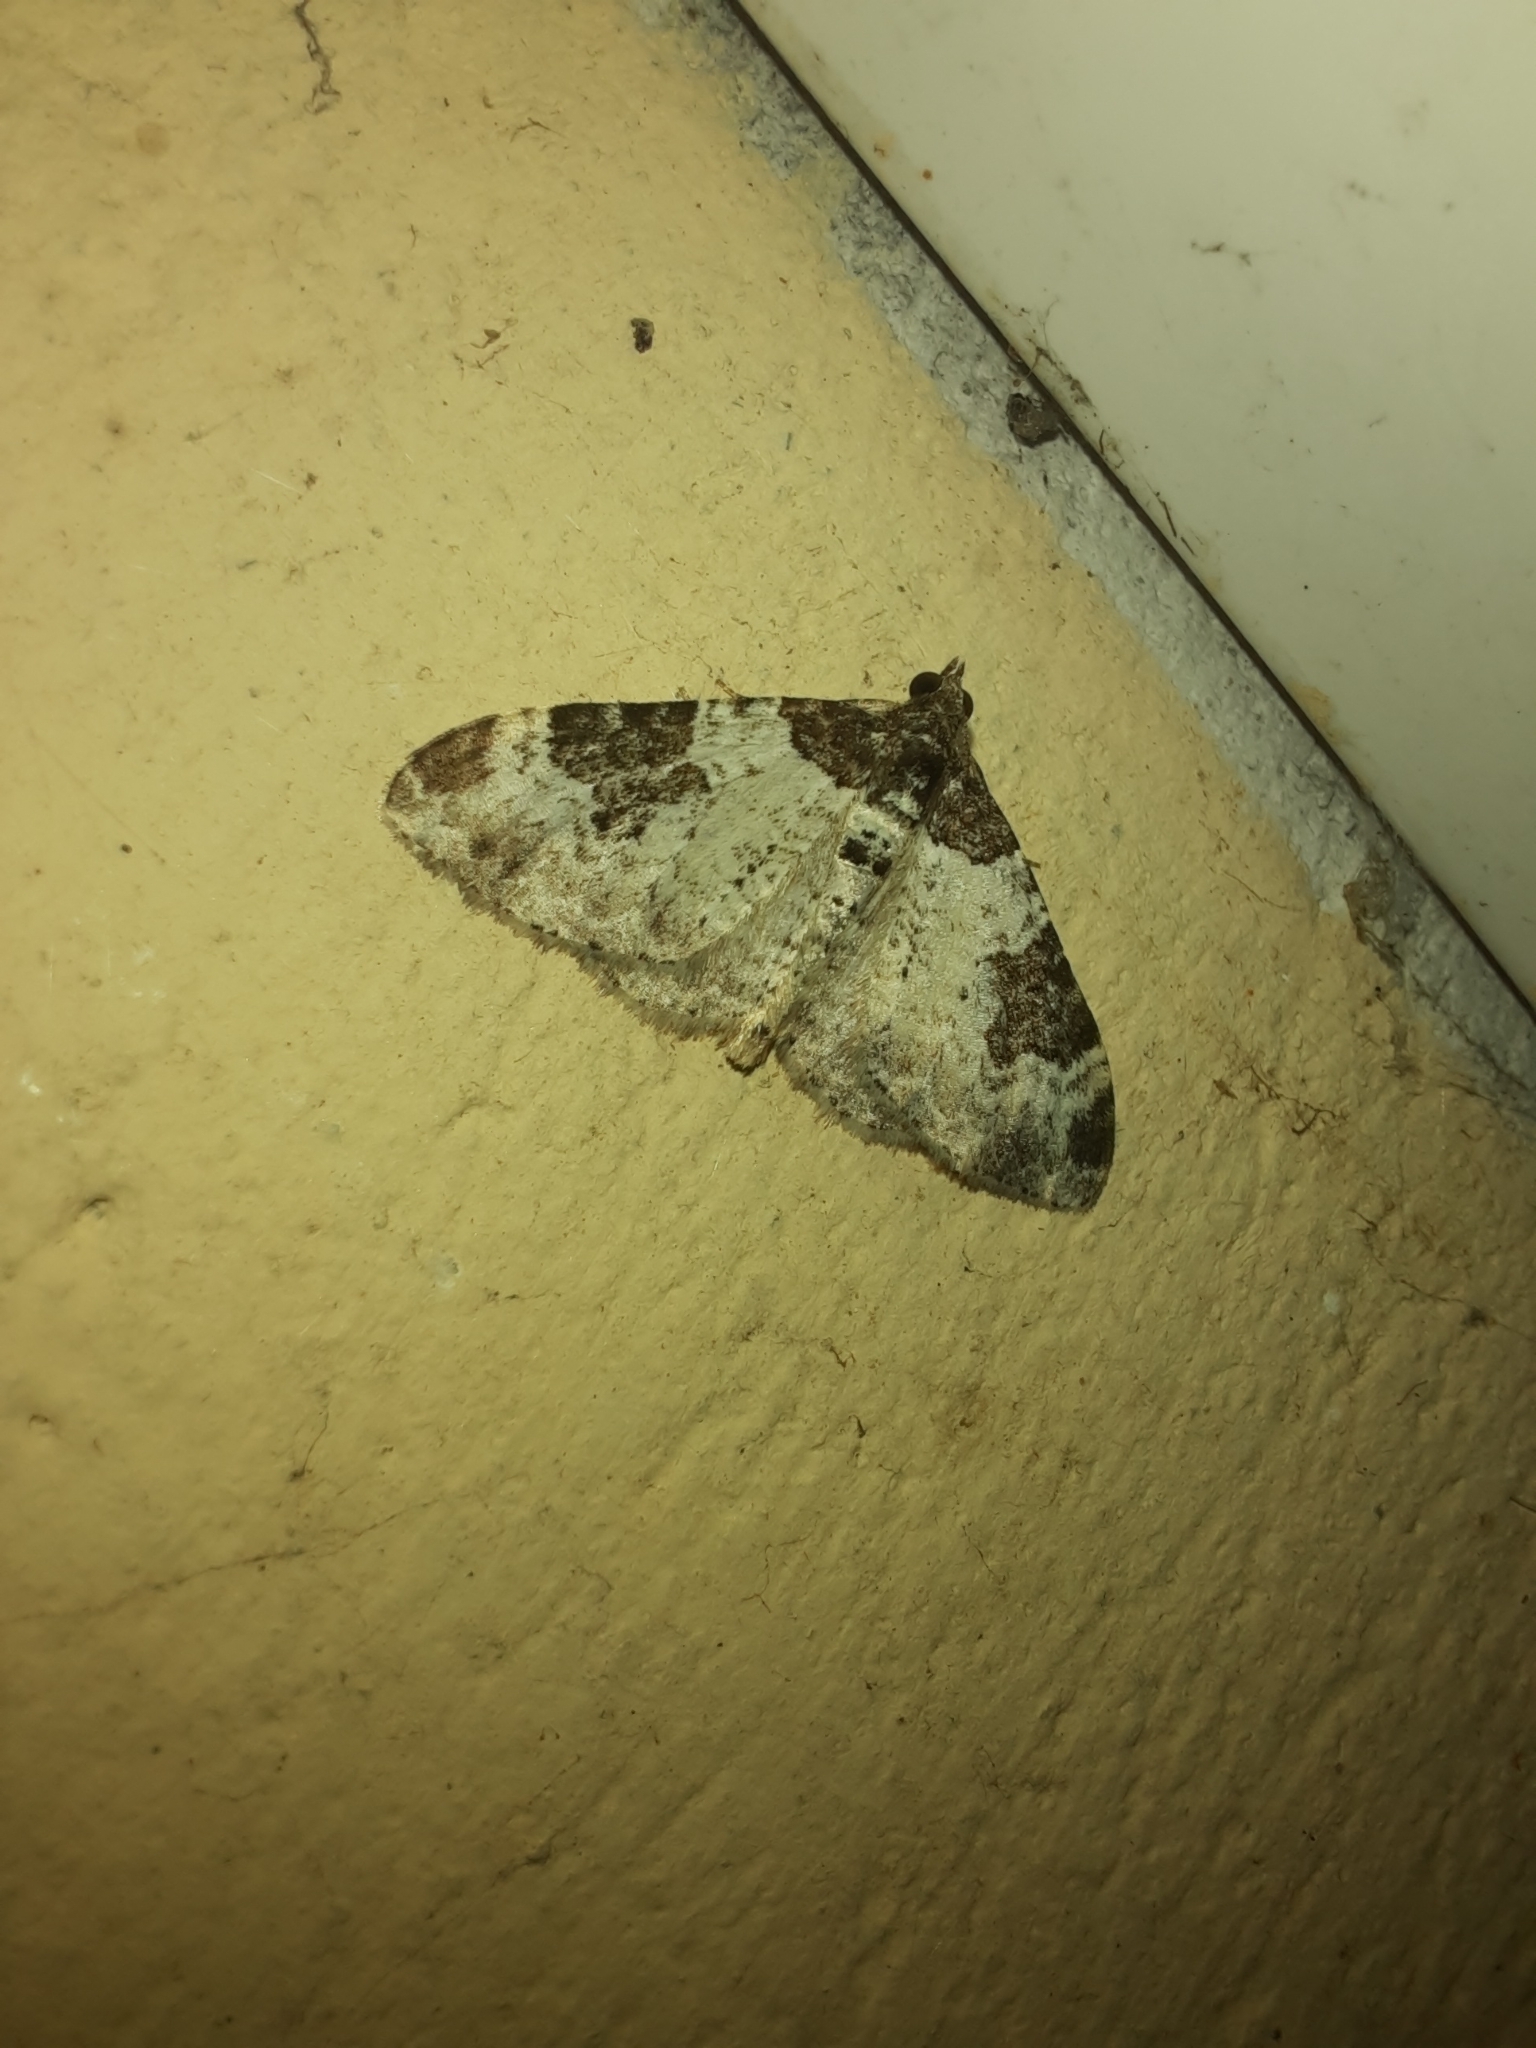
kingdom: Animalia
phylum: Arthropoda
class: Insecta
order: Lepidoptera
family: Geometridae
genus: Xanthorhoe
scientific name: Xanthorhoe fluctuata
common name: Garden carpet
